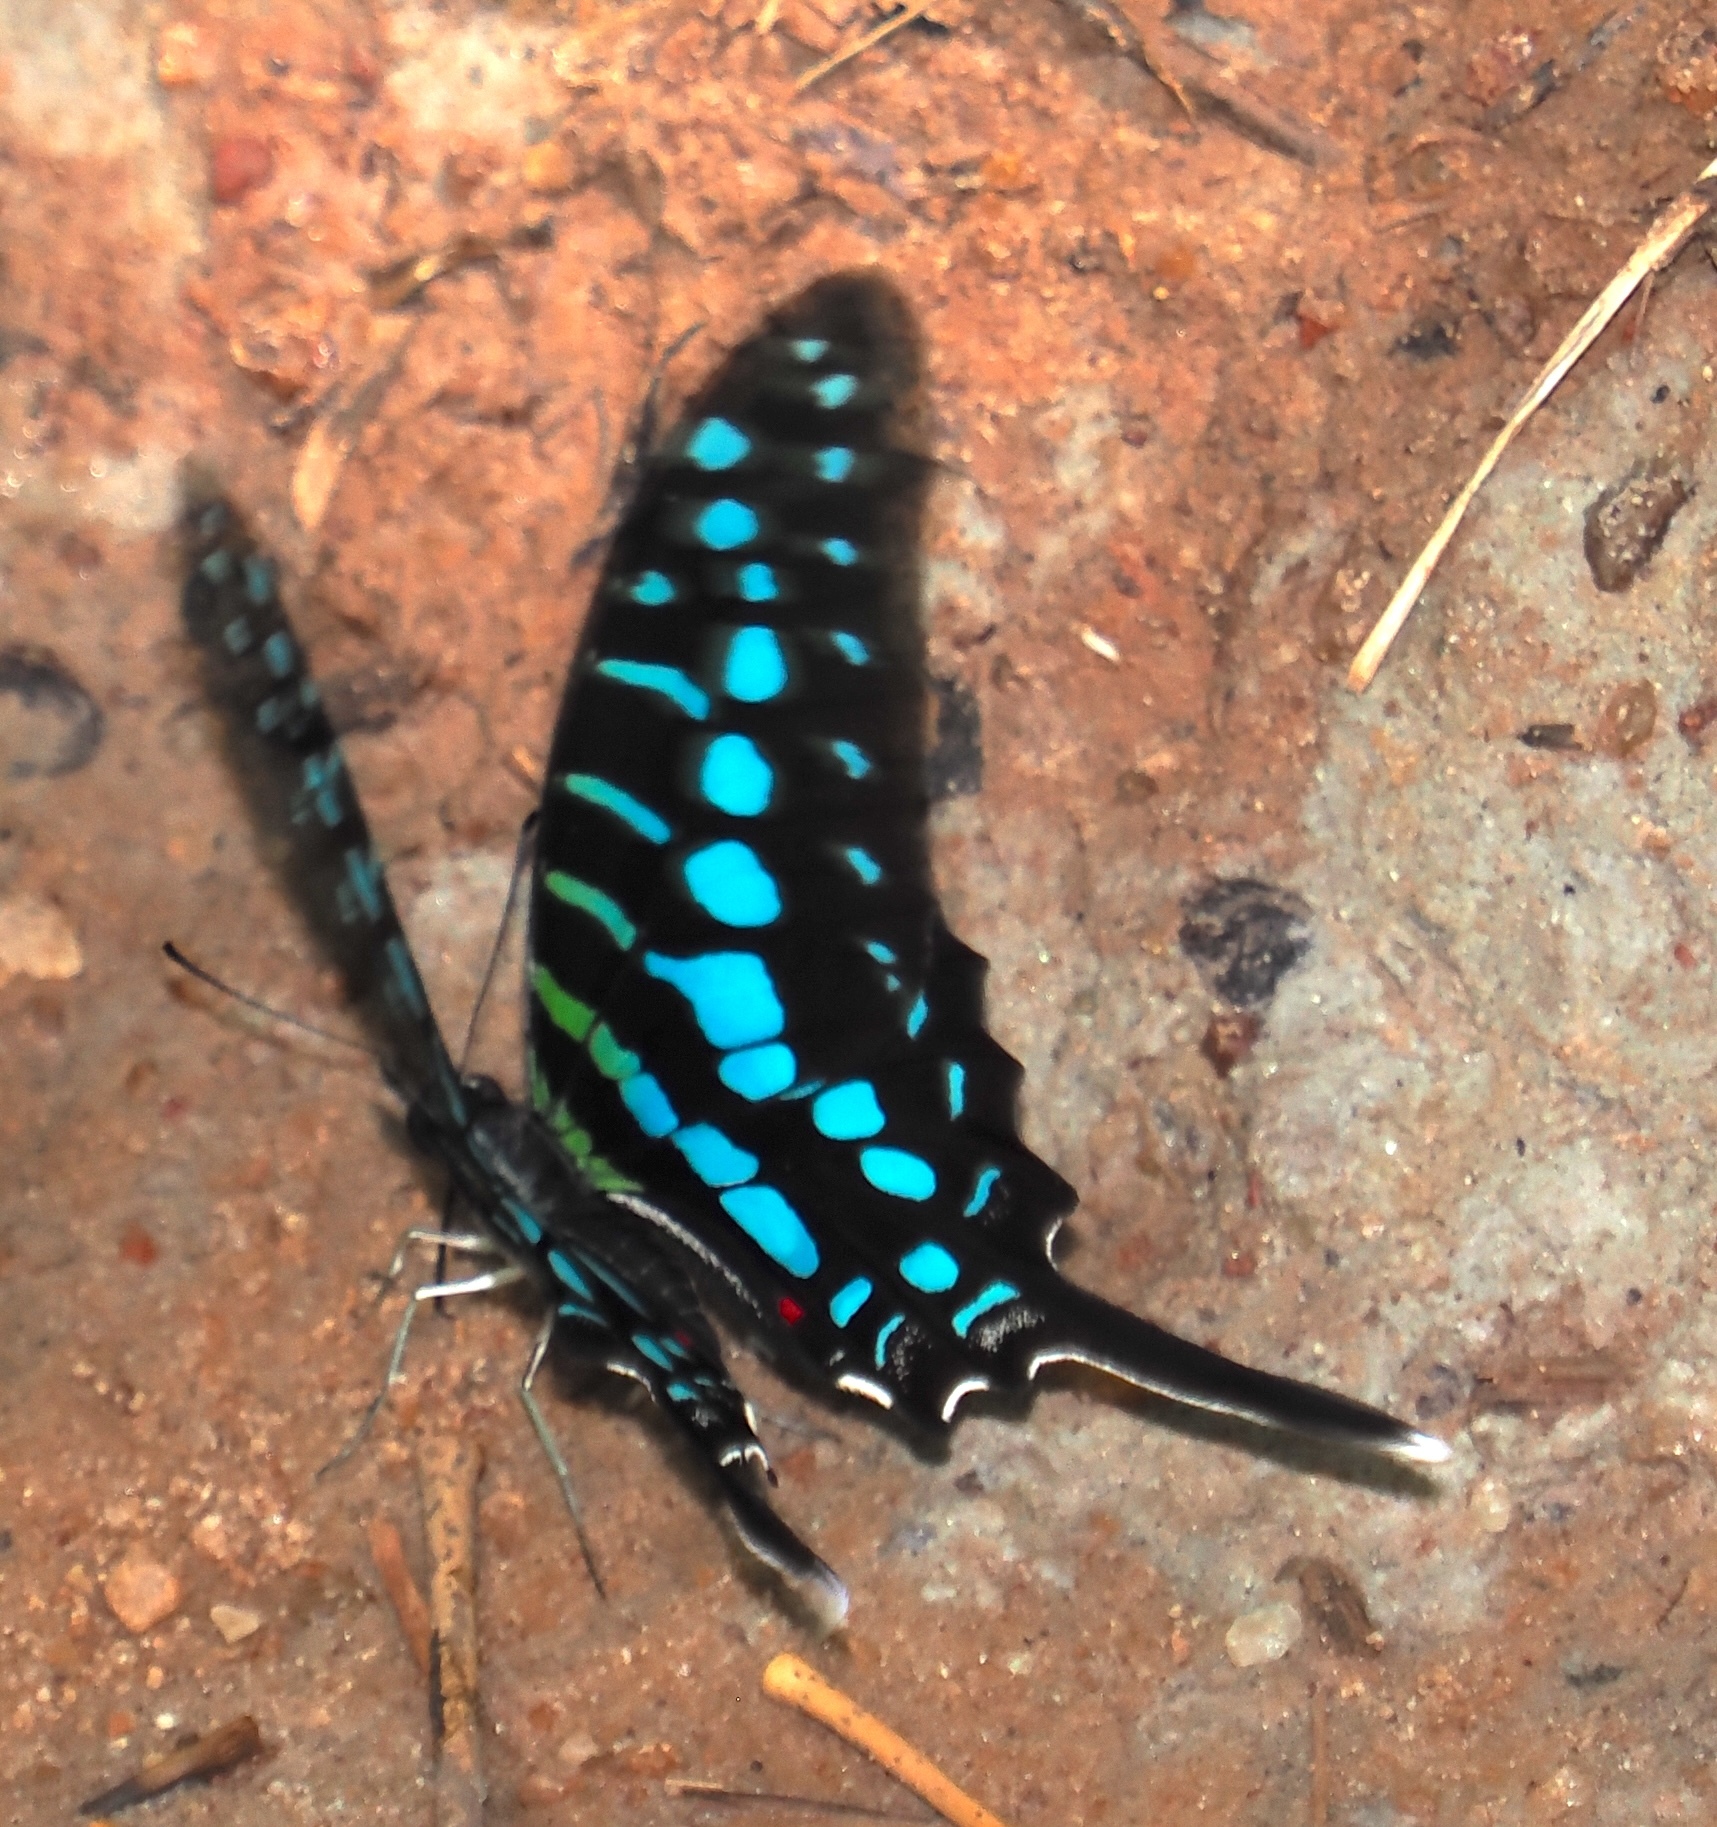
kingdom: Animalia
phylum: Arthropoda
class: Insecta
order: Lepidoptera
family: Papilionidae
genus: Graphium
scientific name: Graphium policenes
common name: Common swordtail
